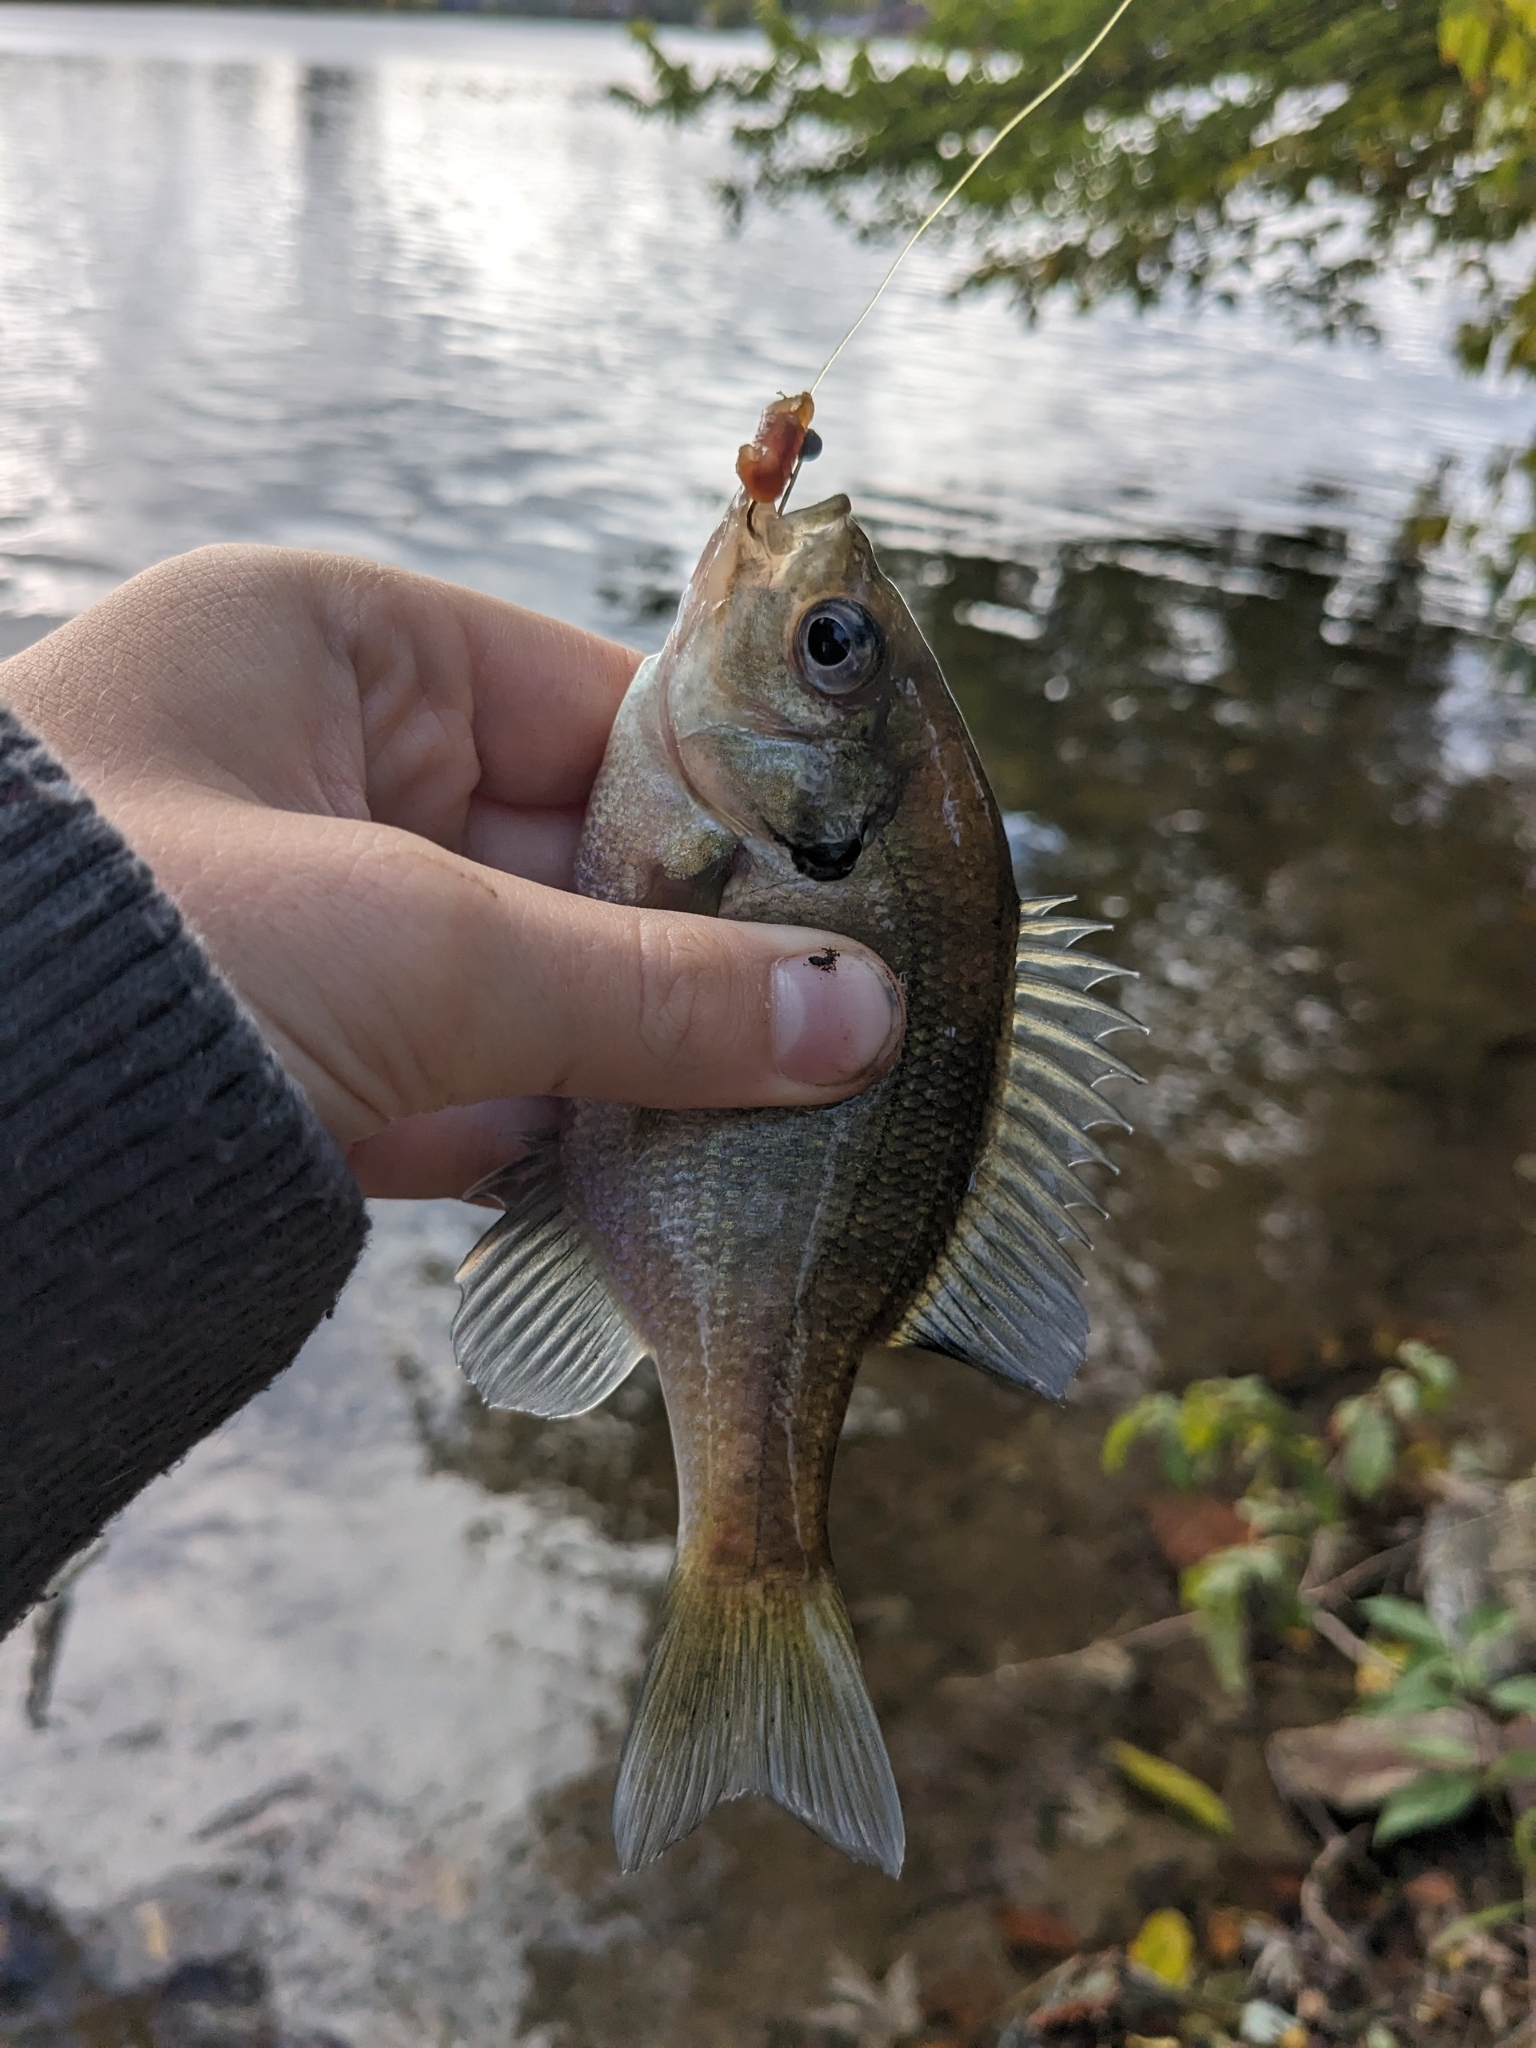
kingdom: Animalia
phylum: Chordata
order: Perciformes
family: Centrarchidae
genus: Lepomis
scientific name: Lepomis macrochirus
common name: Bluegill
